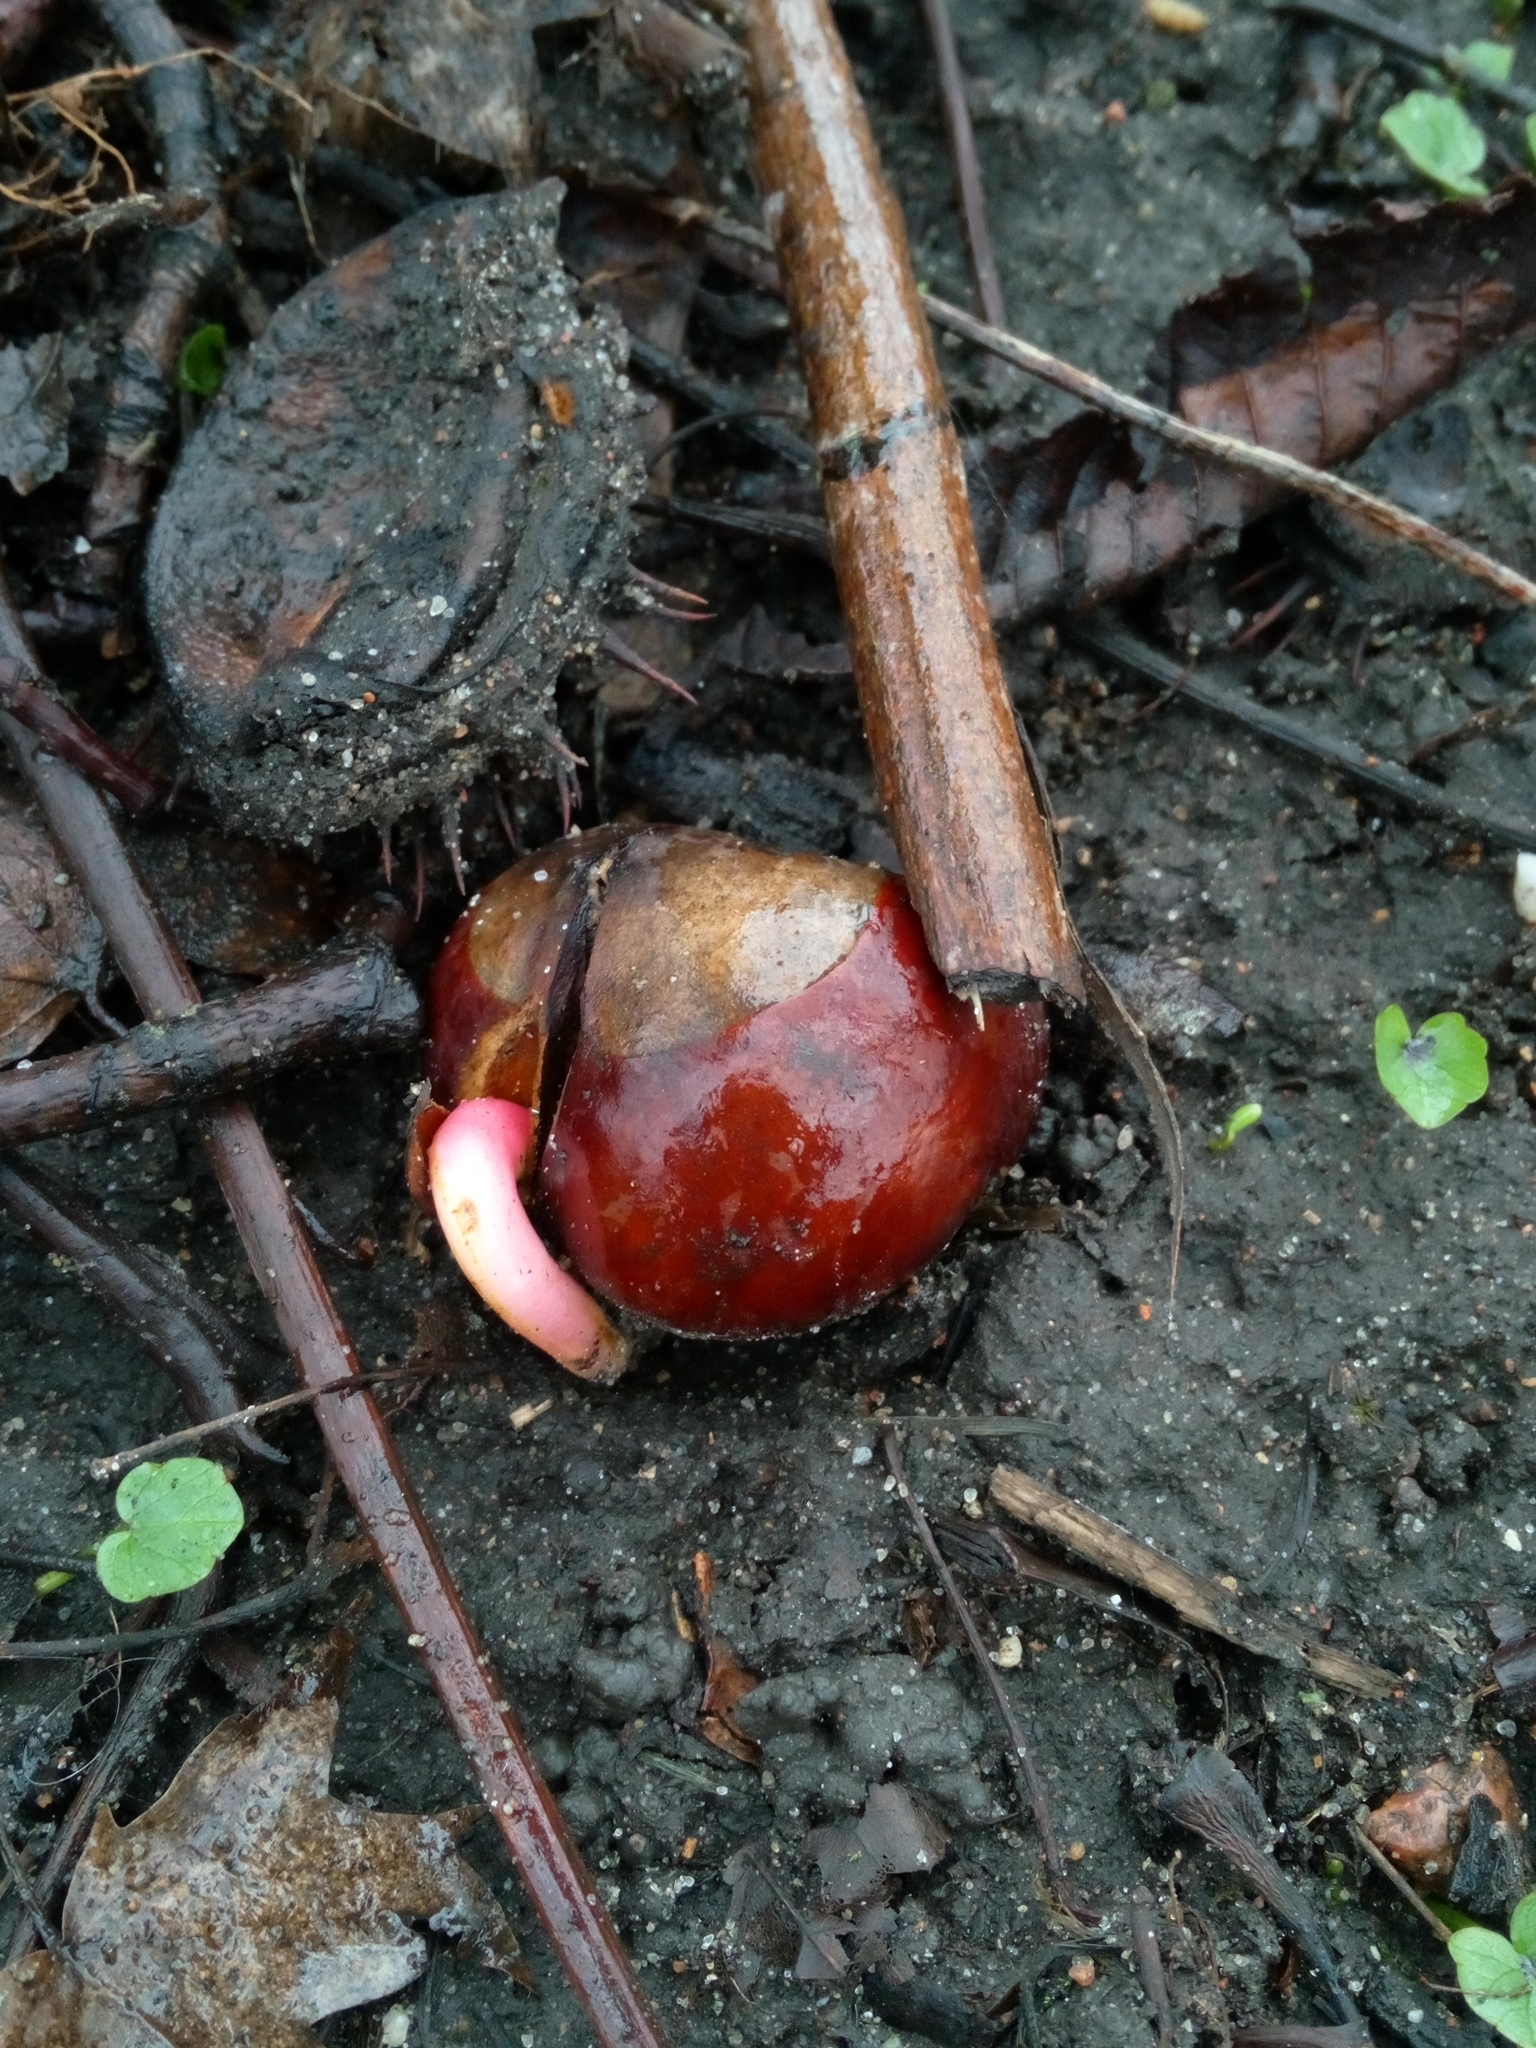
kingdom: Plantae
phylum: Tracheophyta
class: Magnoliopsida
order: Sapindales
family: Sapindaceae
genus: Aesculus
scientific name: Aesculus hippocastanum
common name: Horse-chestnut
